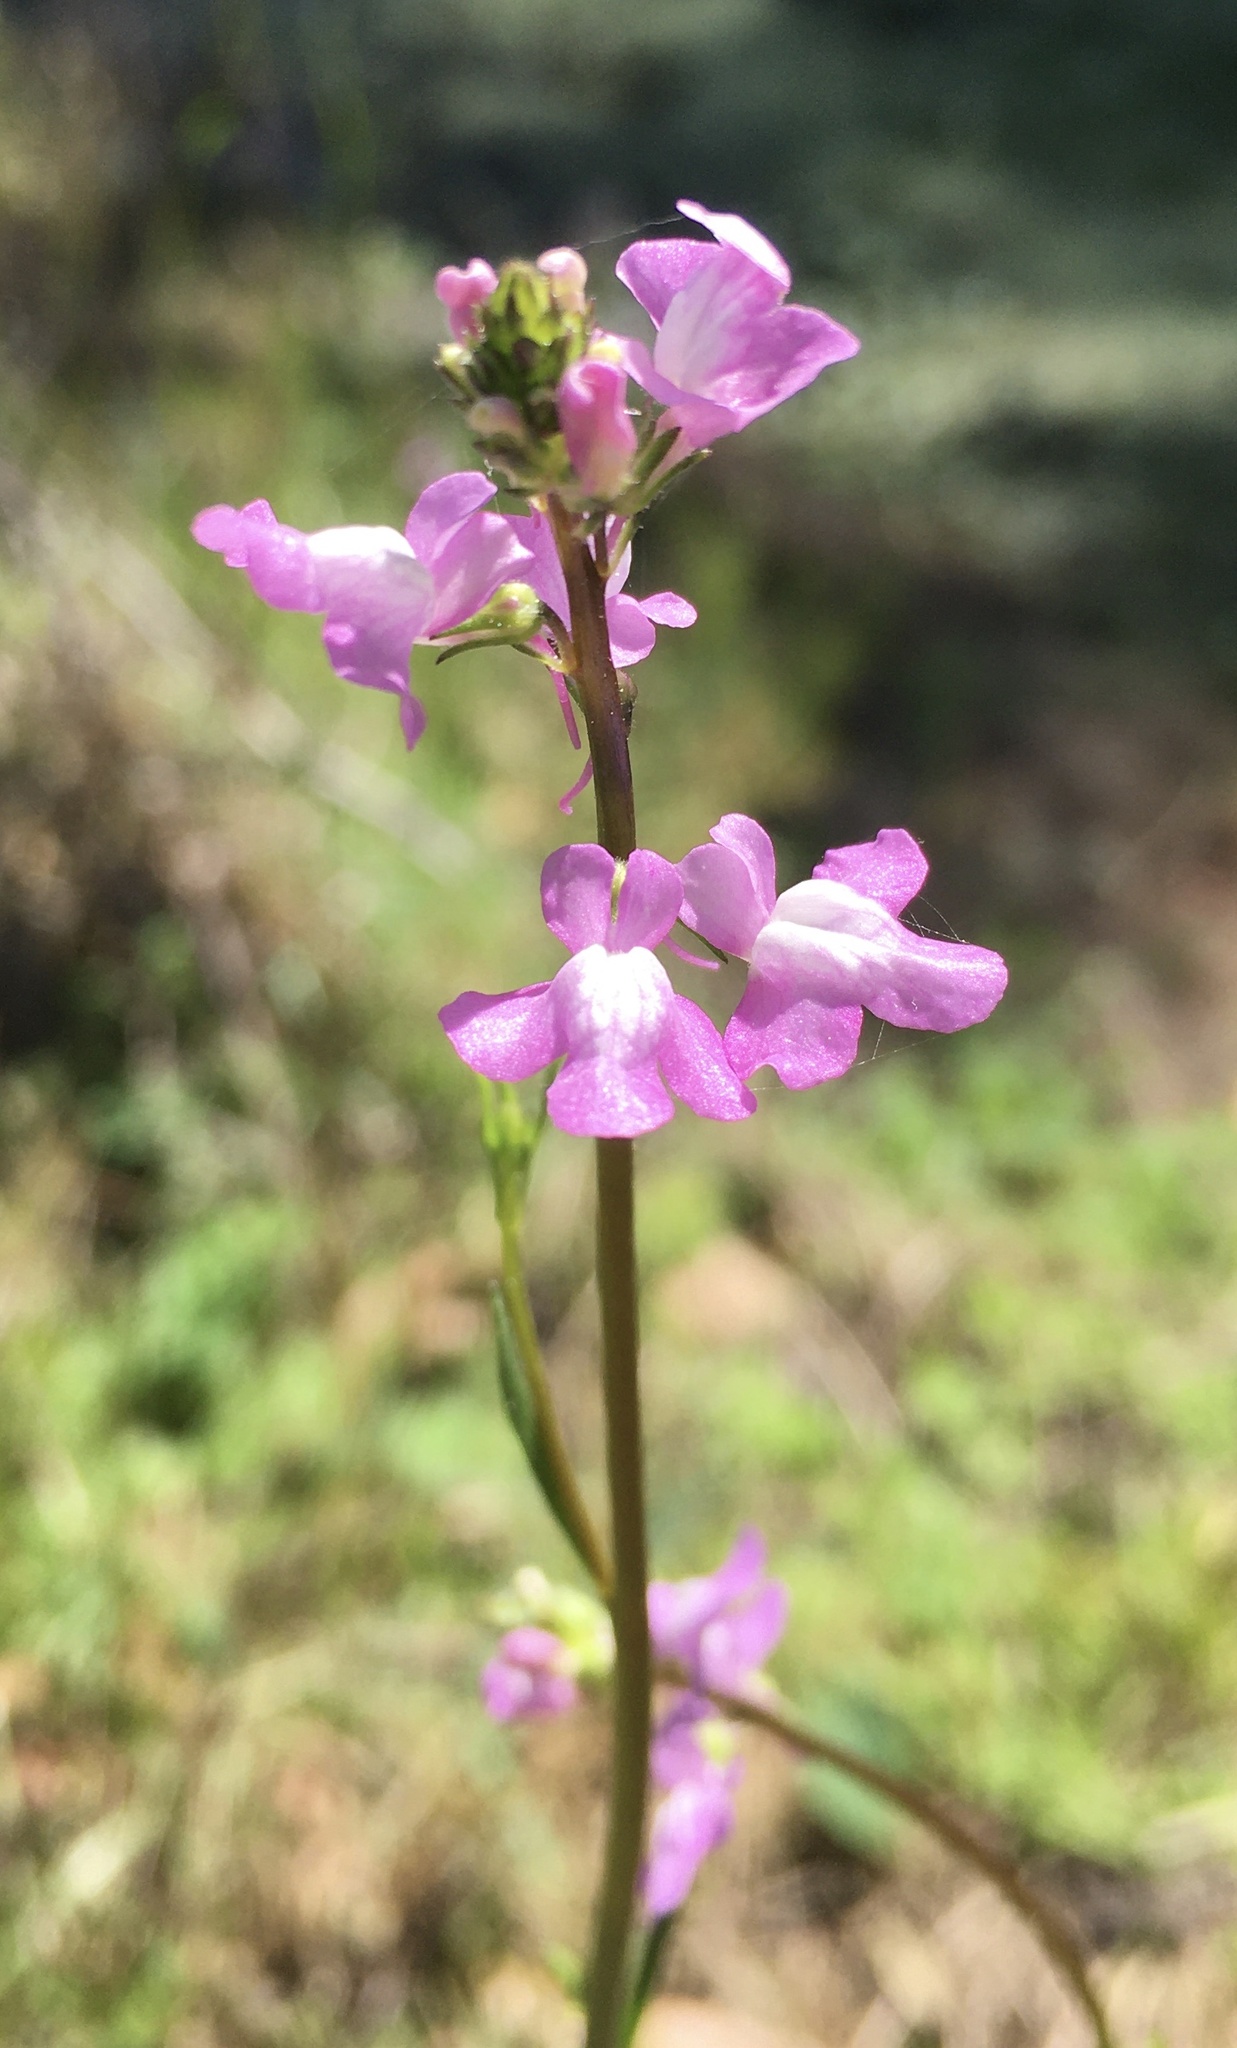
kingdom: Plantae
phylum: Tracheophyta
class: Magnoliopsida
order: Lamiales
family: Plantaginaceae
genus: Nuttallanthus
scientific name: Nuttallanthus canadensis
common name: Blue toadflax
